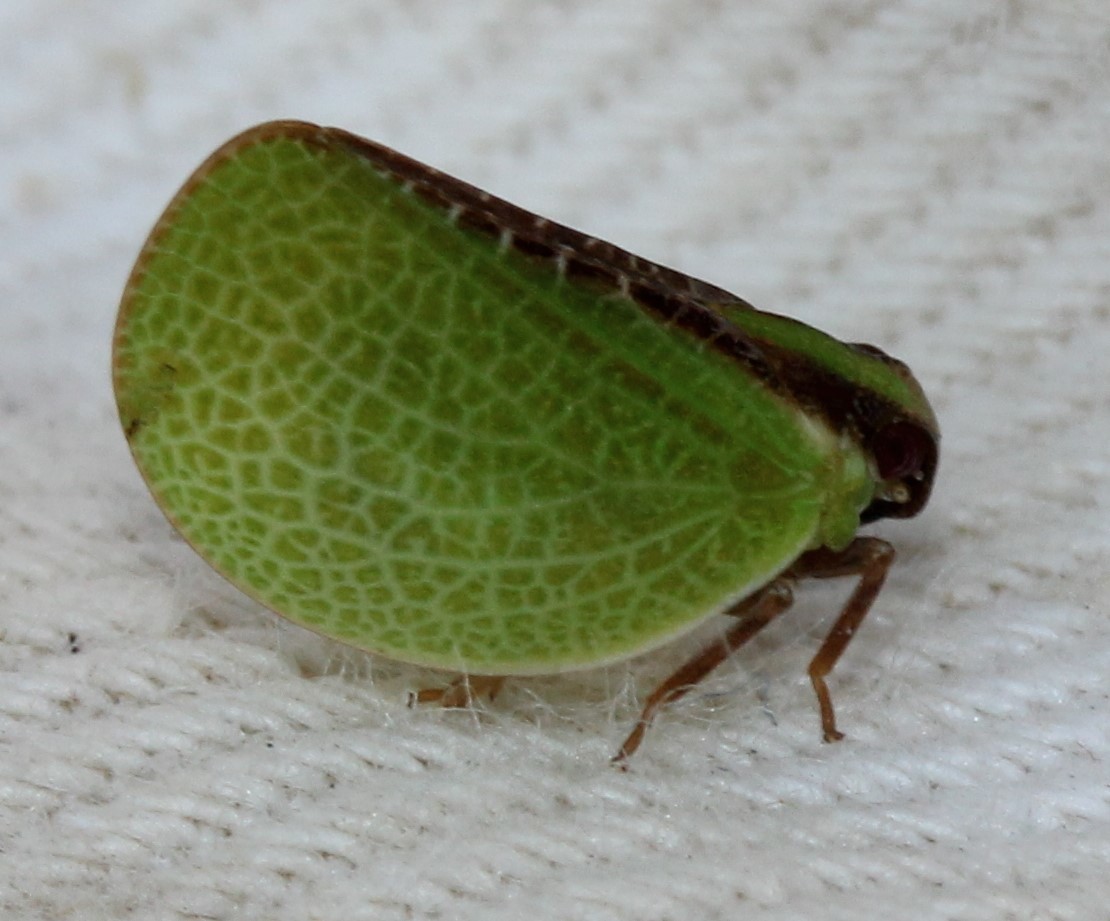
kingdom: Animalia
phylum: Arthropoda
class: Insecta
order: Hemiptera
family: Acanaloniidae
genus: Acanalonia
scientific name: Acanalonia bivittata
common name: Two-striped planthopper
